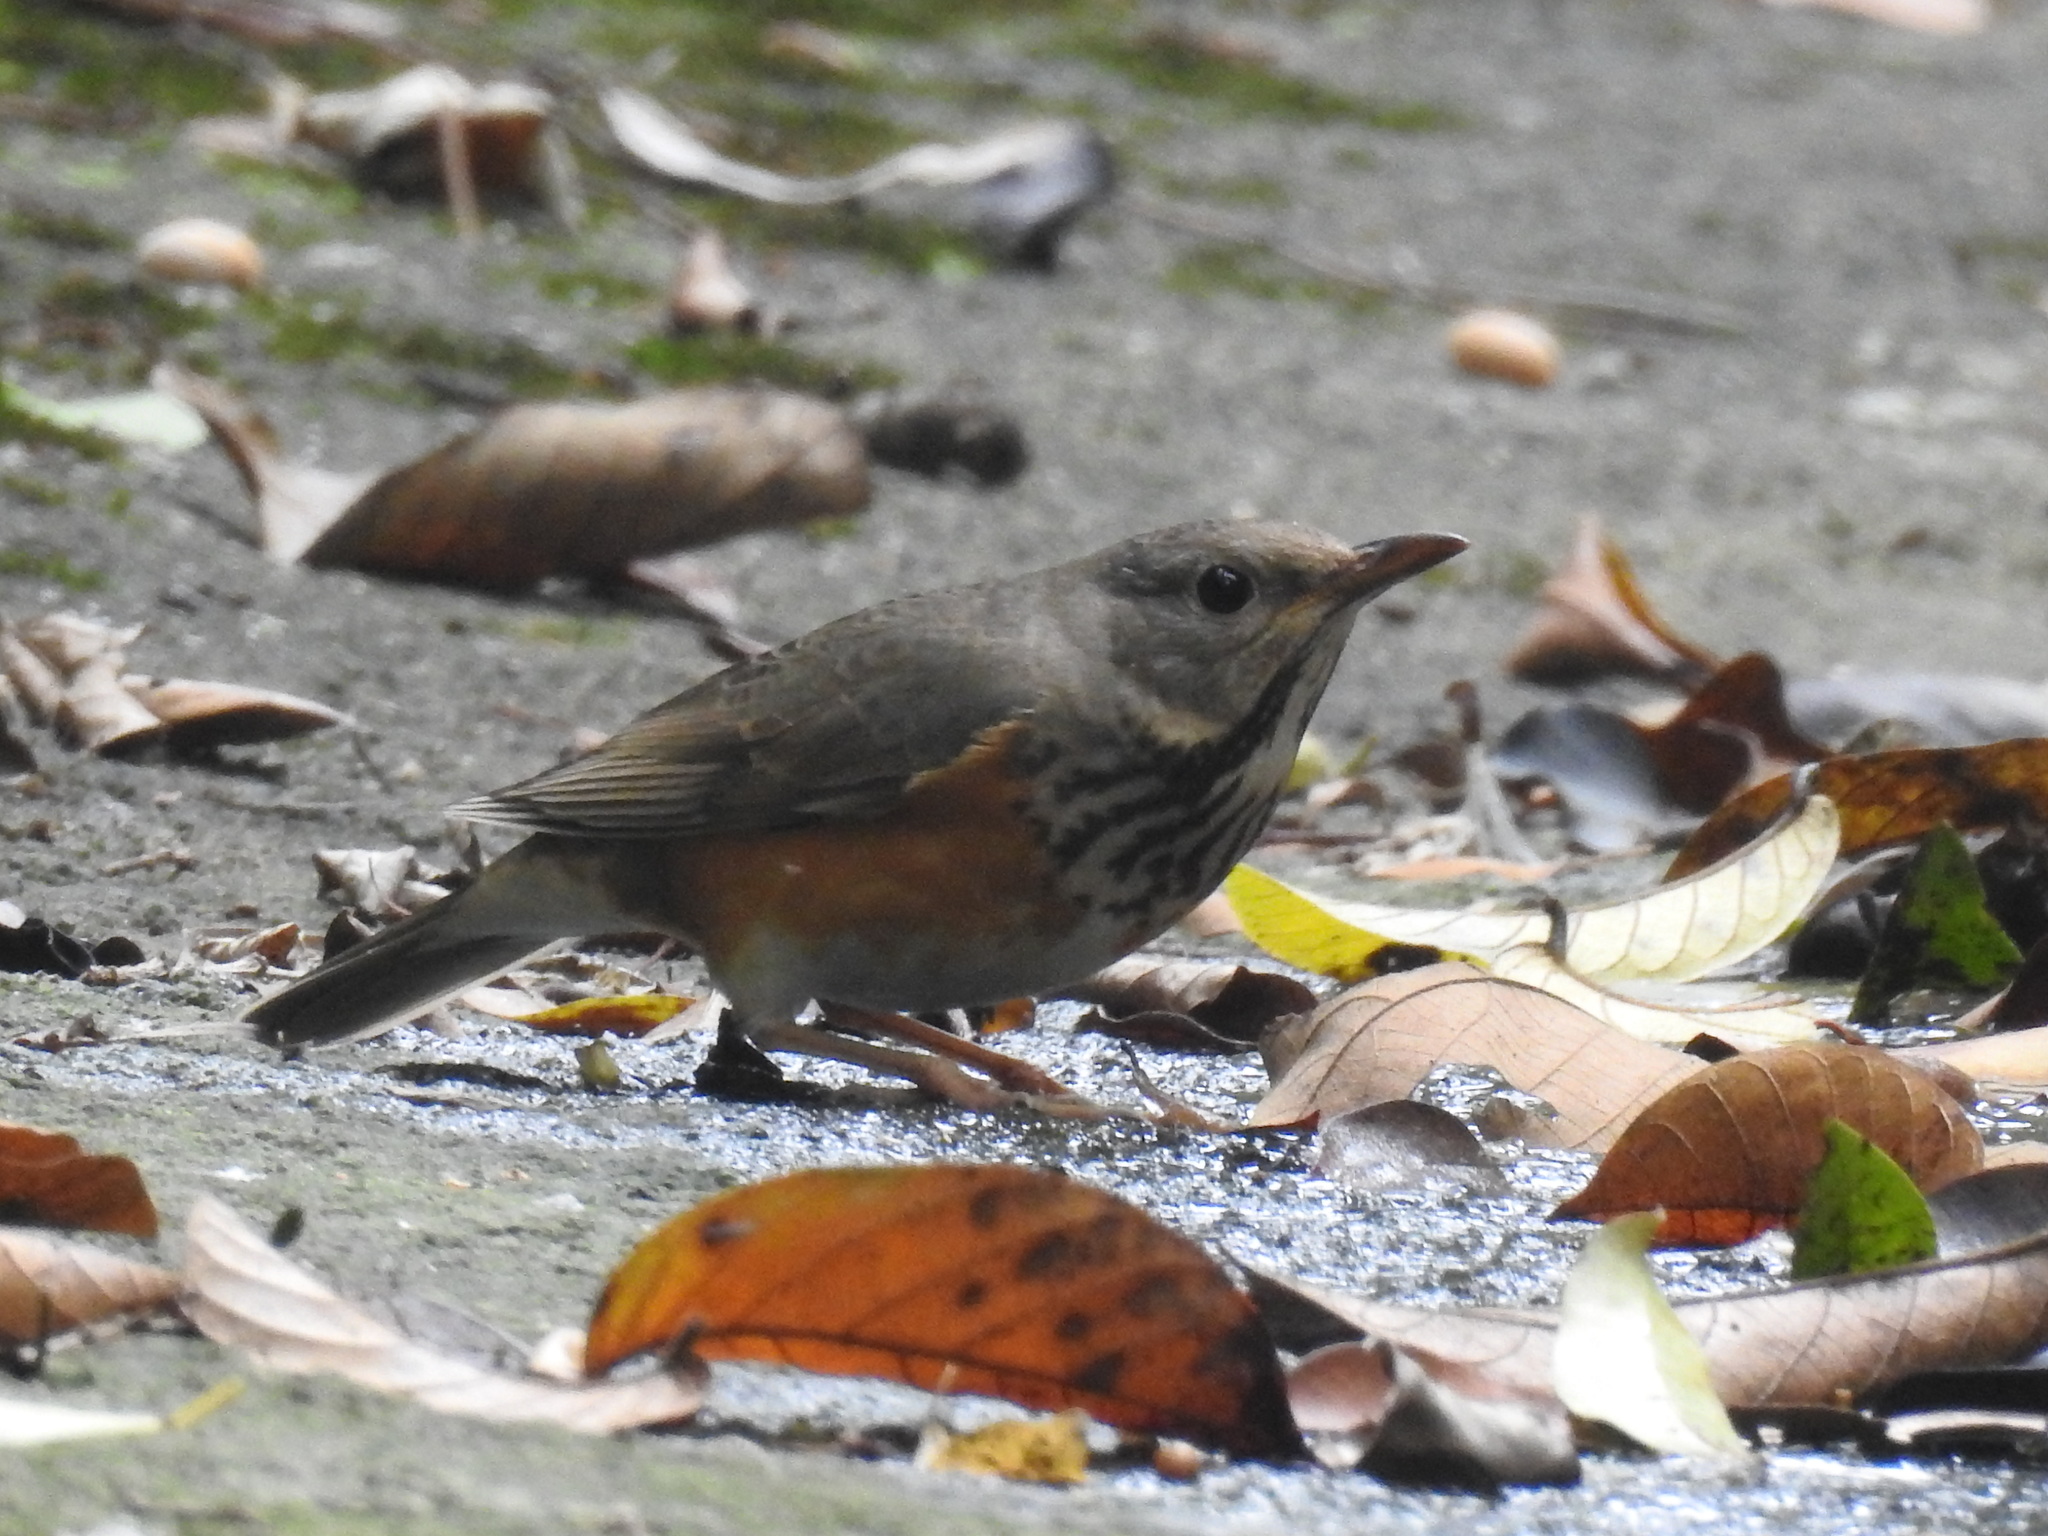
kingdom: Animalia
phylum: Chordata
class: Aves
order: Passeriformes
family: Turdidae
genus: Turdus
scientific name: Turdus hortulorum
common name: Grey-backed thrush
